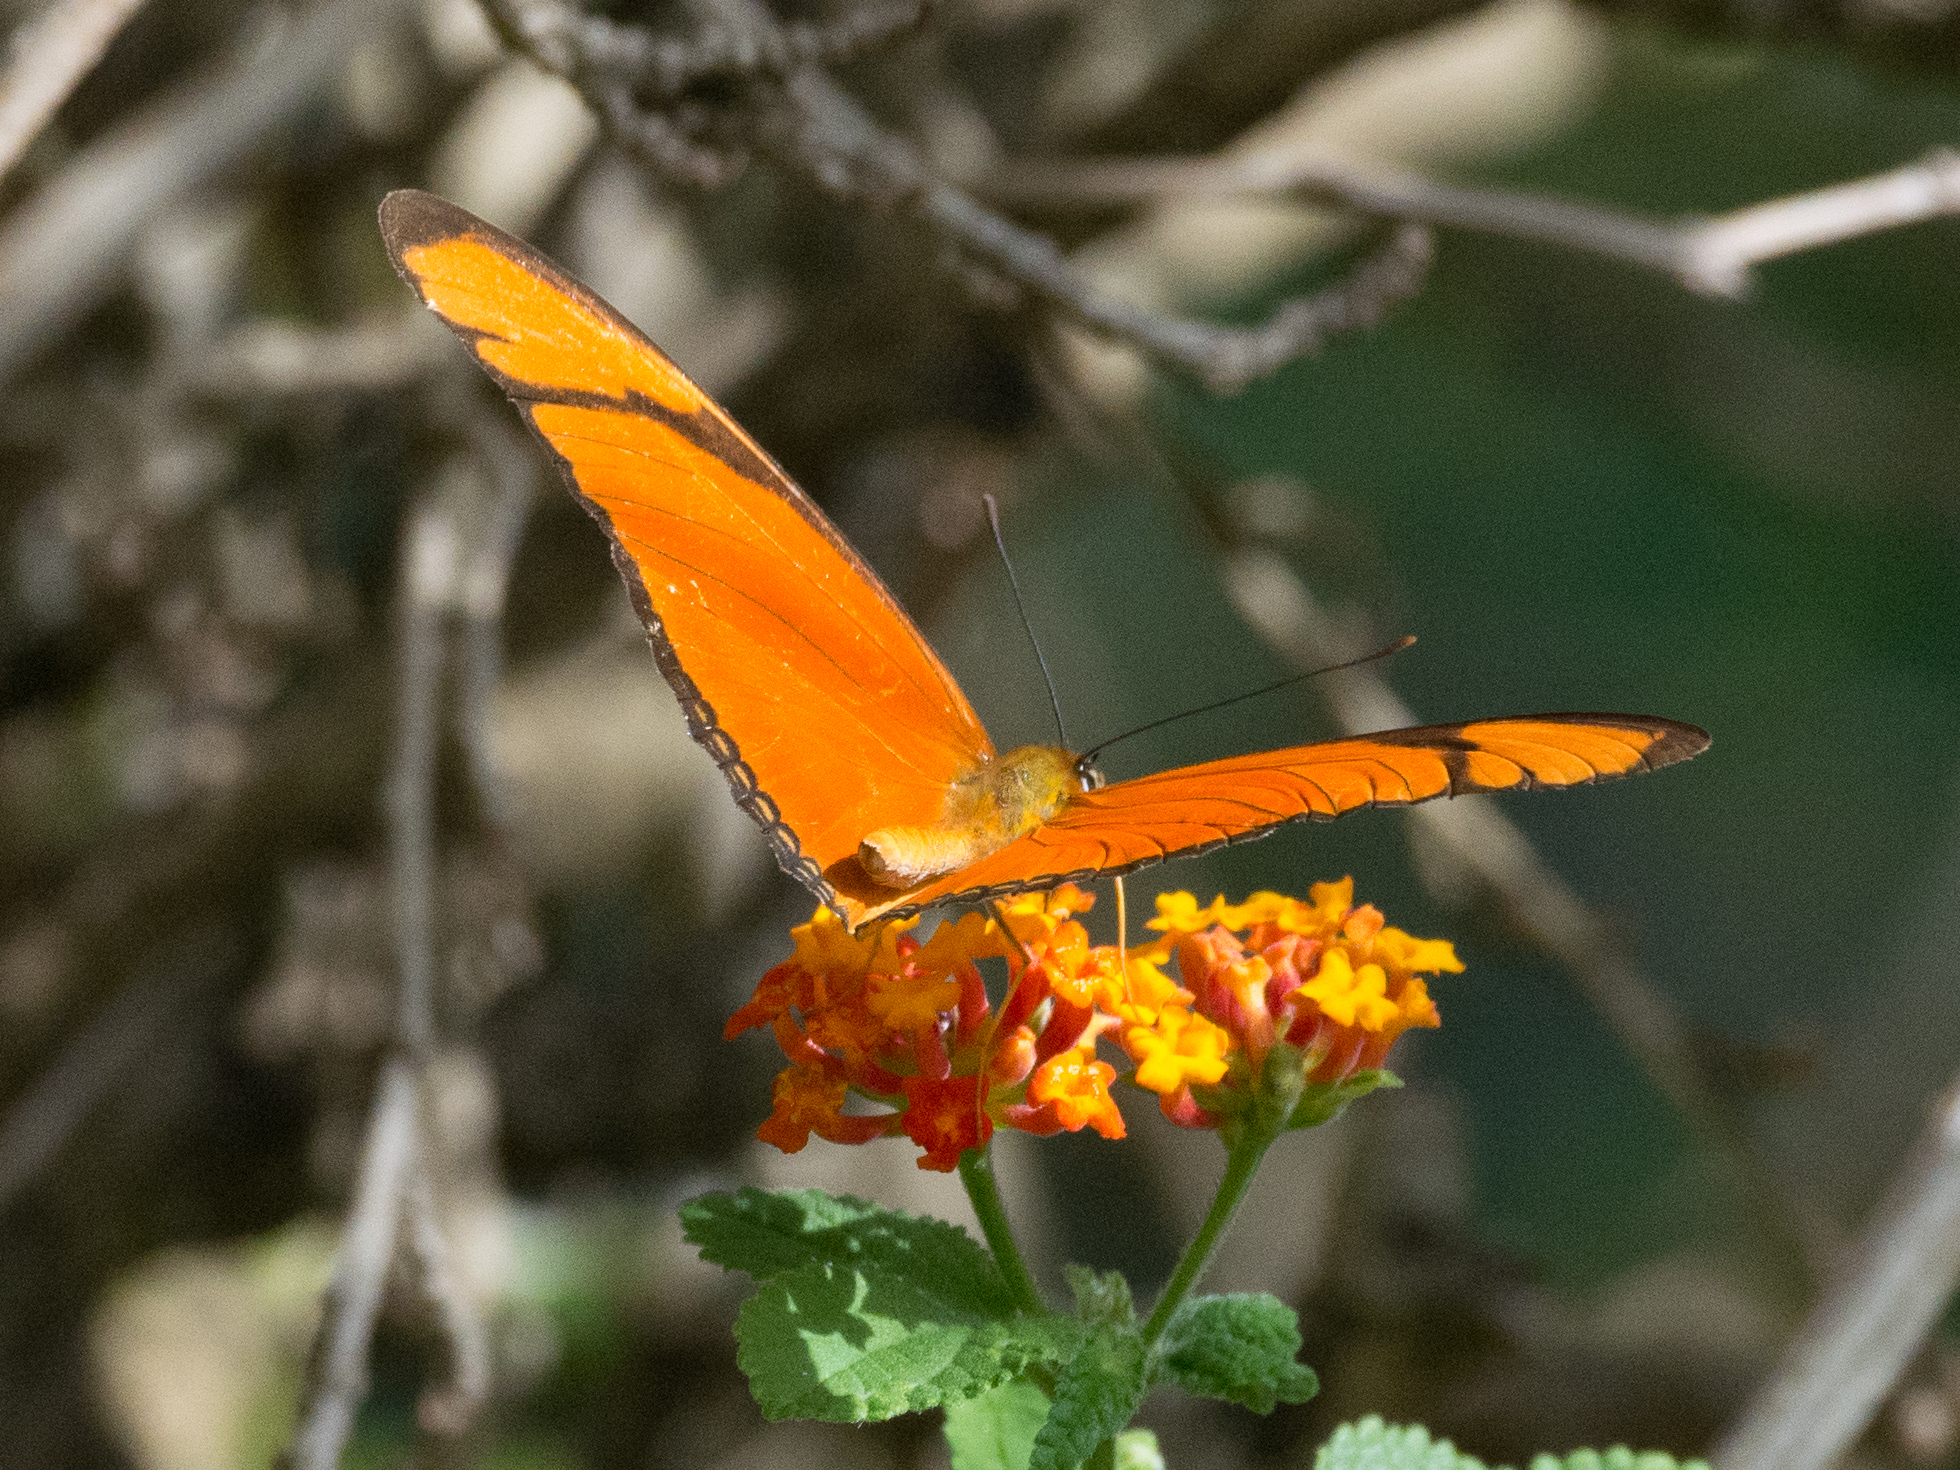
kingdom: Animalia
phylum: Arthropoda
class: Insecta
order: Lepidoptera
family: Nymphalidae
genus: Dryas
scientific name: Dryas iulia
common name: Flambeau
